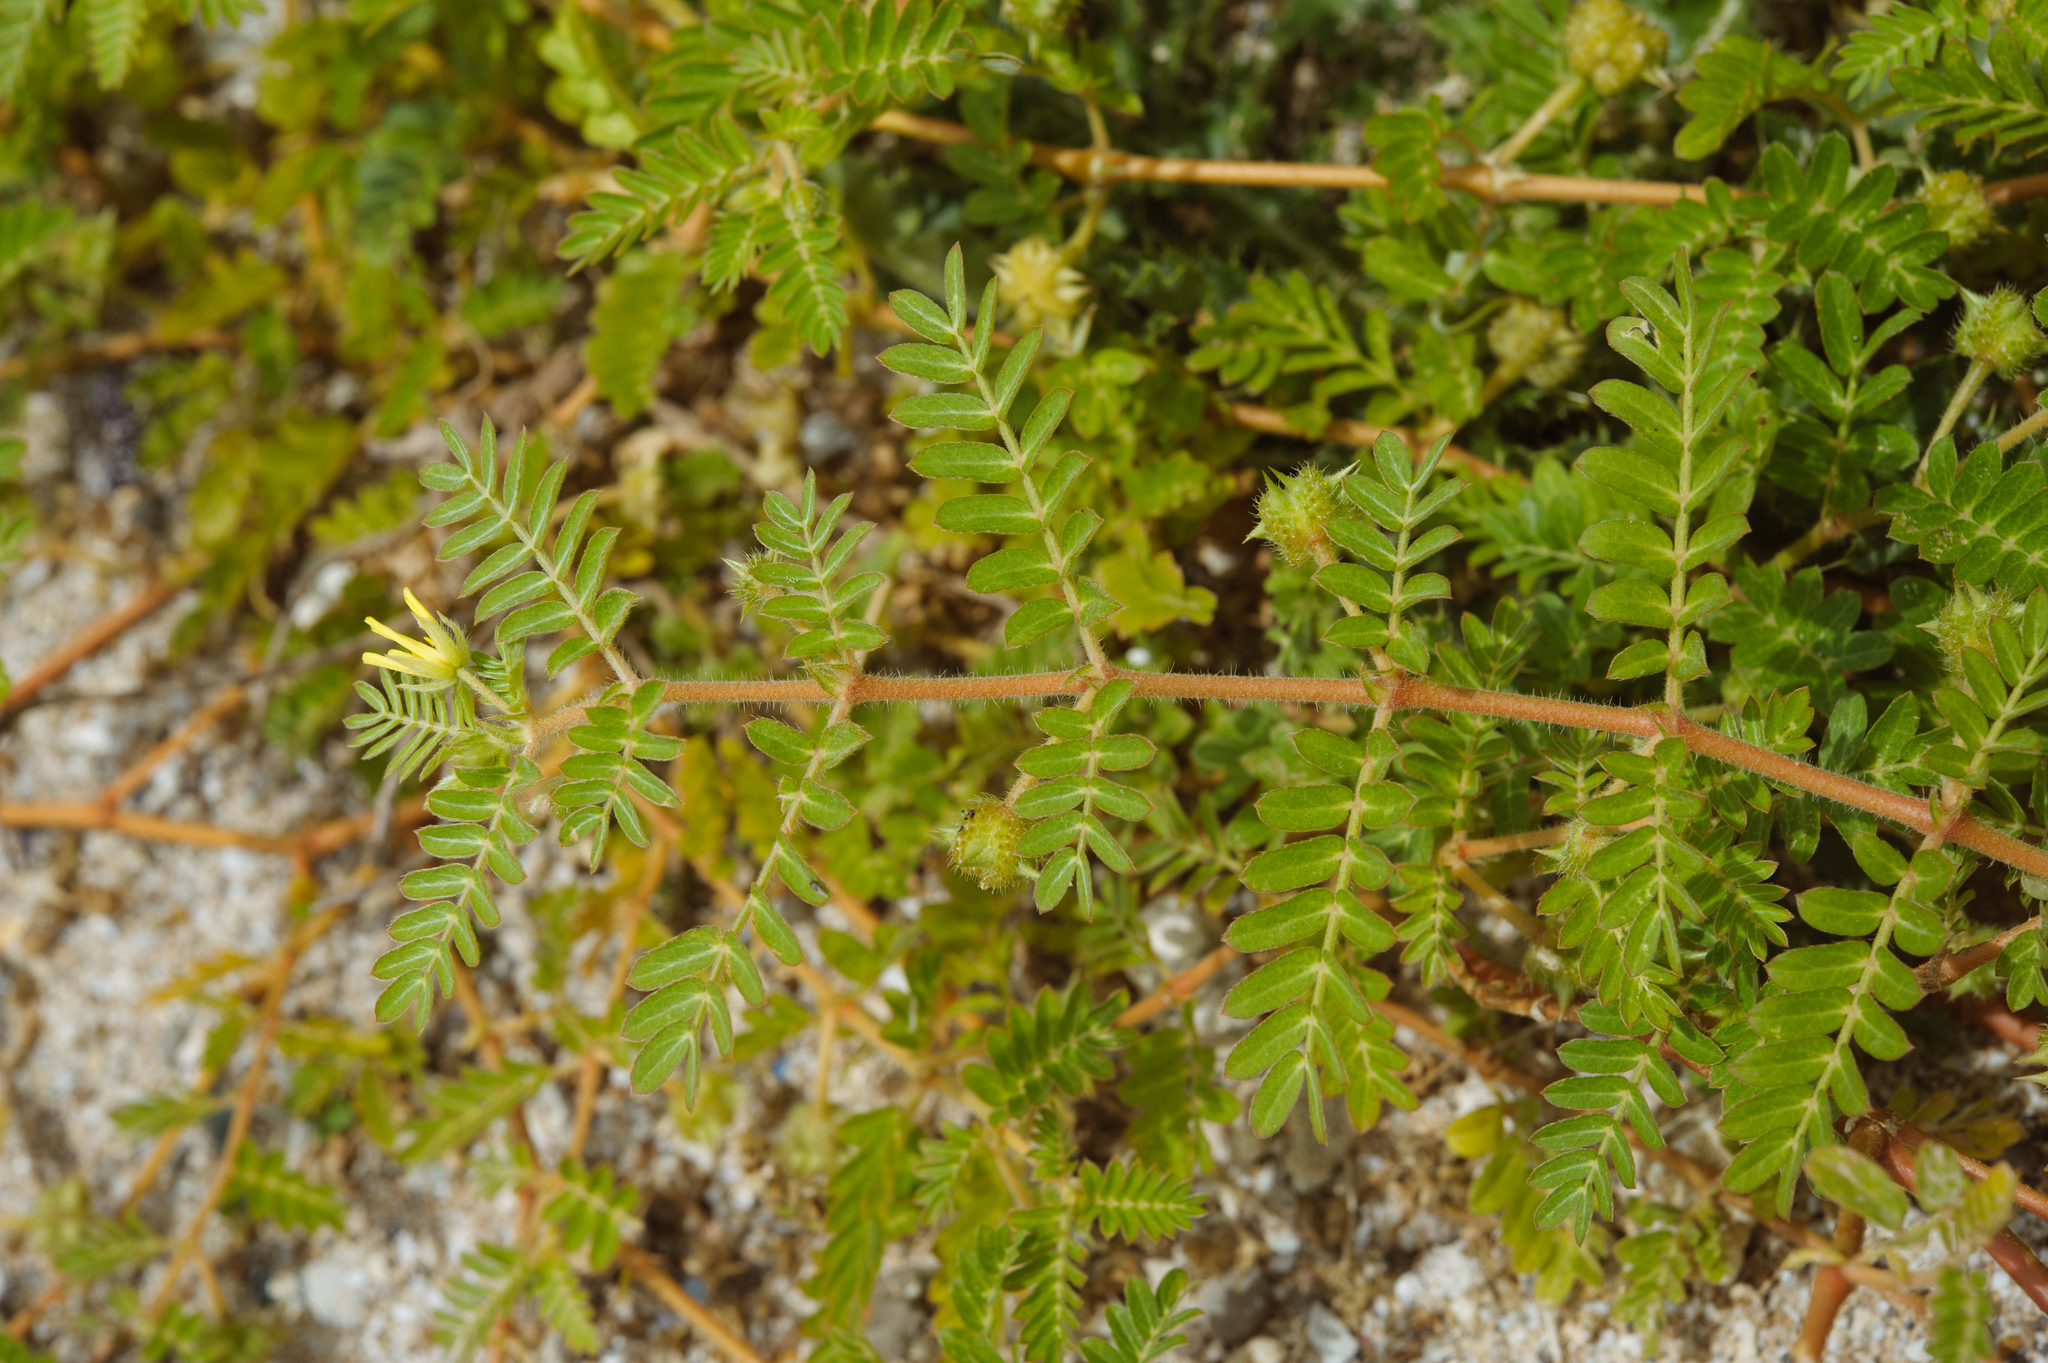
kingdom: Plantae
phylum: Tracheophyta
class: Magnoliopsida
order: Zygophyllales
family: Zygophyllaceae
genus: Tribulus
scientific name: Tribulus cistoides
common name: Jamaican feverplant
